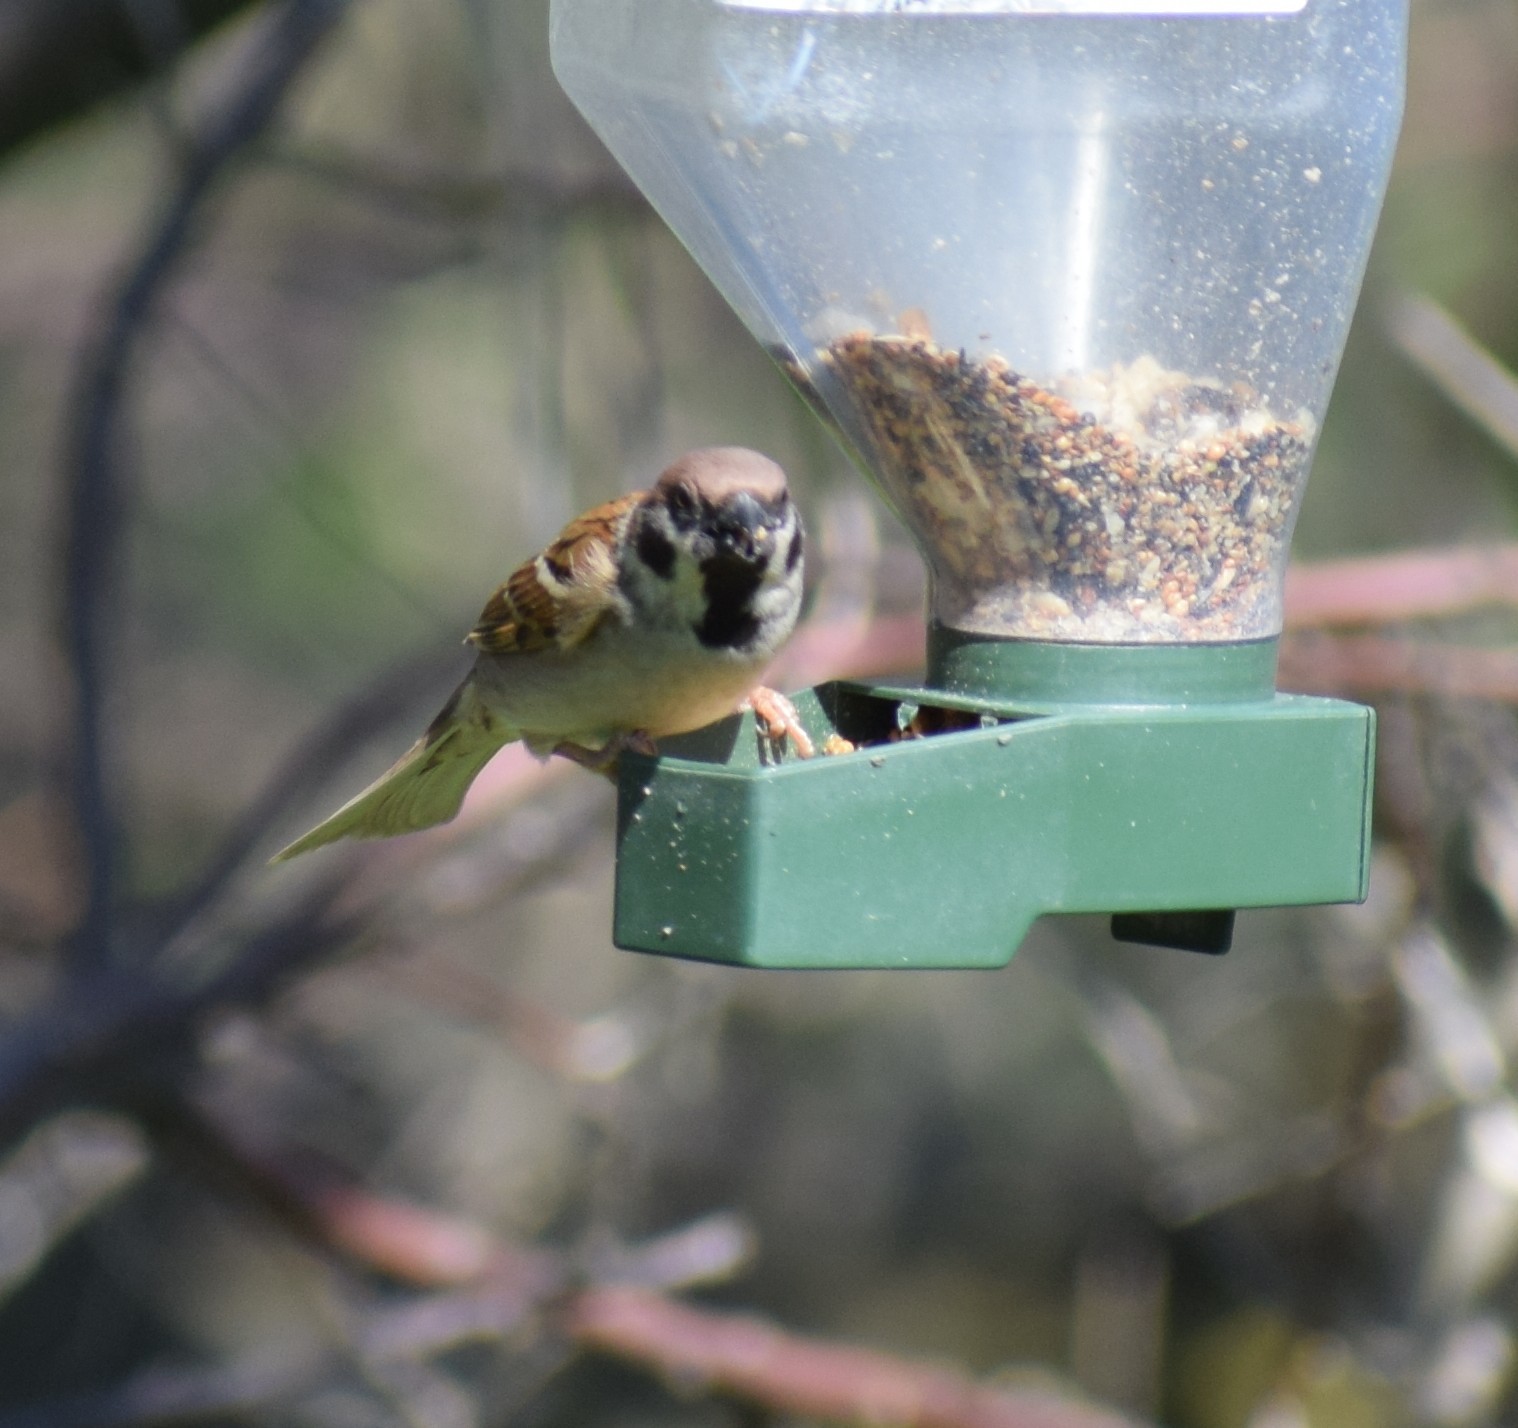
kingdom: Animalia
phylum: Chordata
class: Aves
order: Passeriformes
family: Passeridae
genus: Passer
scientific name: Passer montanus
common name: Eurasian tree sparrow
